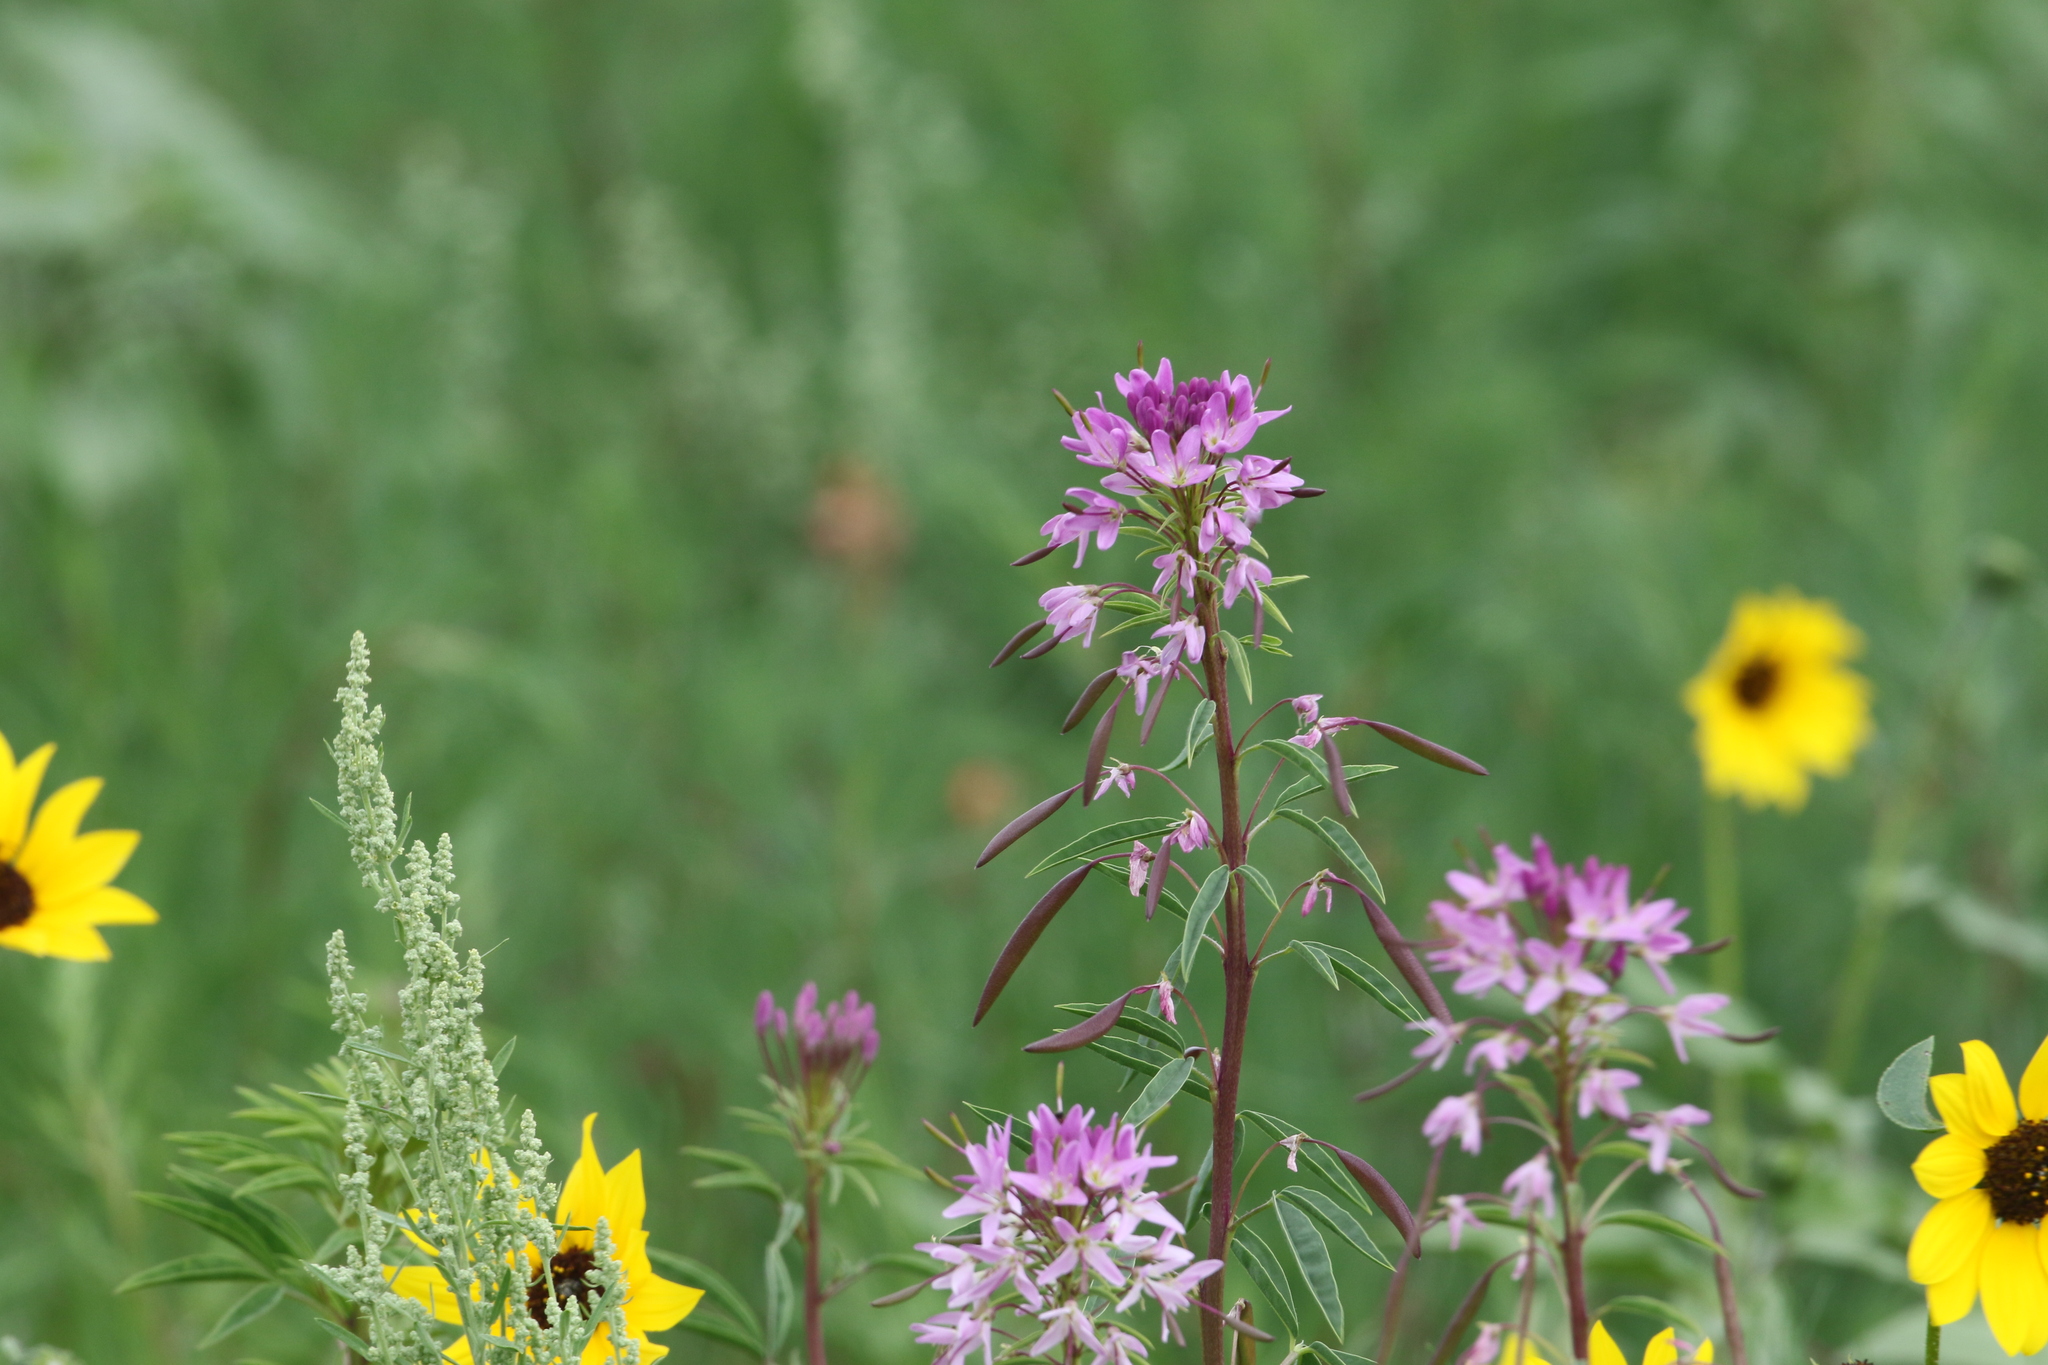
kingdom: Plantae
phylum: Tracheophyta
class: Magnoliopsida
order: Brassicales
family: Cleomaceae
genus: Cleomella
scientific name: Cleomella serrulata
